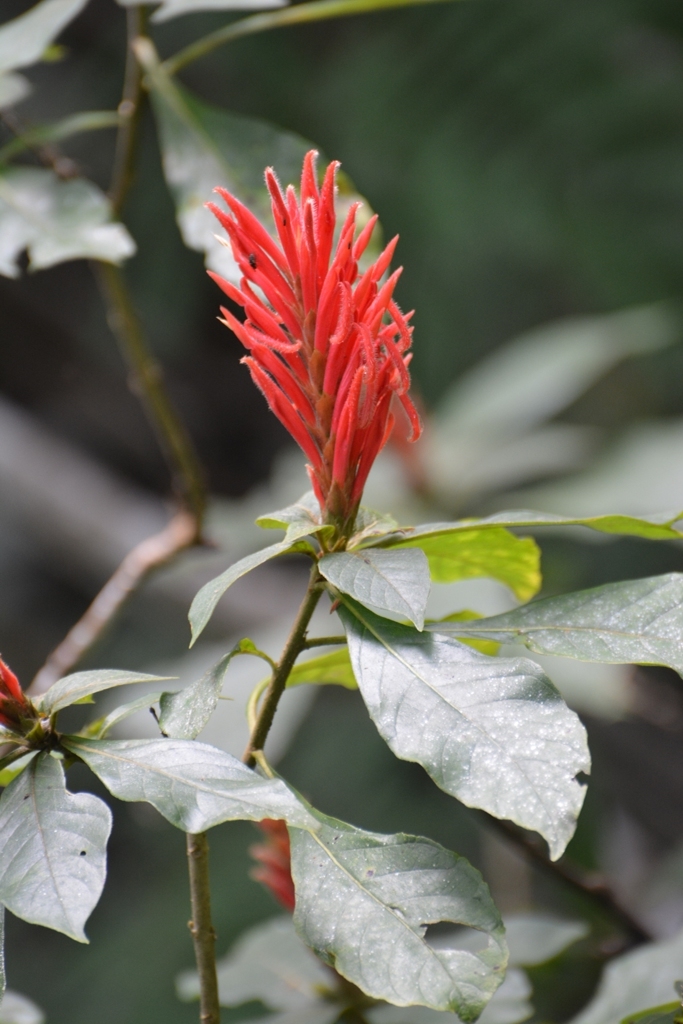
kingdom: Plantae
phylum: Tracheophyta
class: Magnoliopsida
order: Lamiales
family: Acanthaceae
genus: Aphelandra
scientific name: Aphelandra scabra
